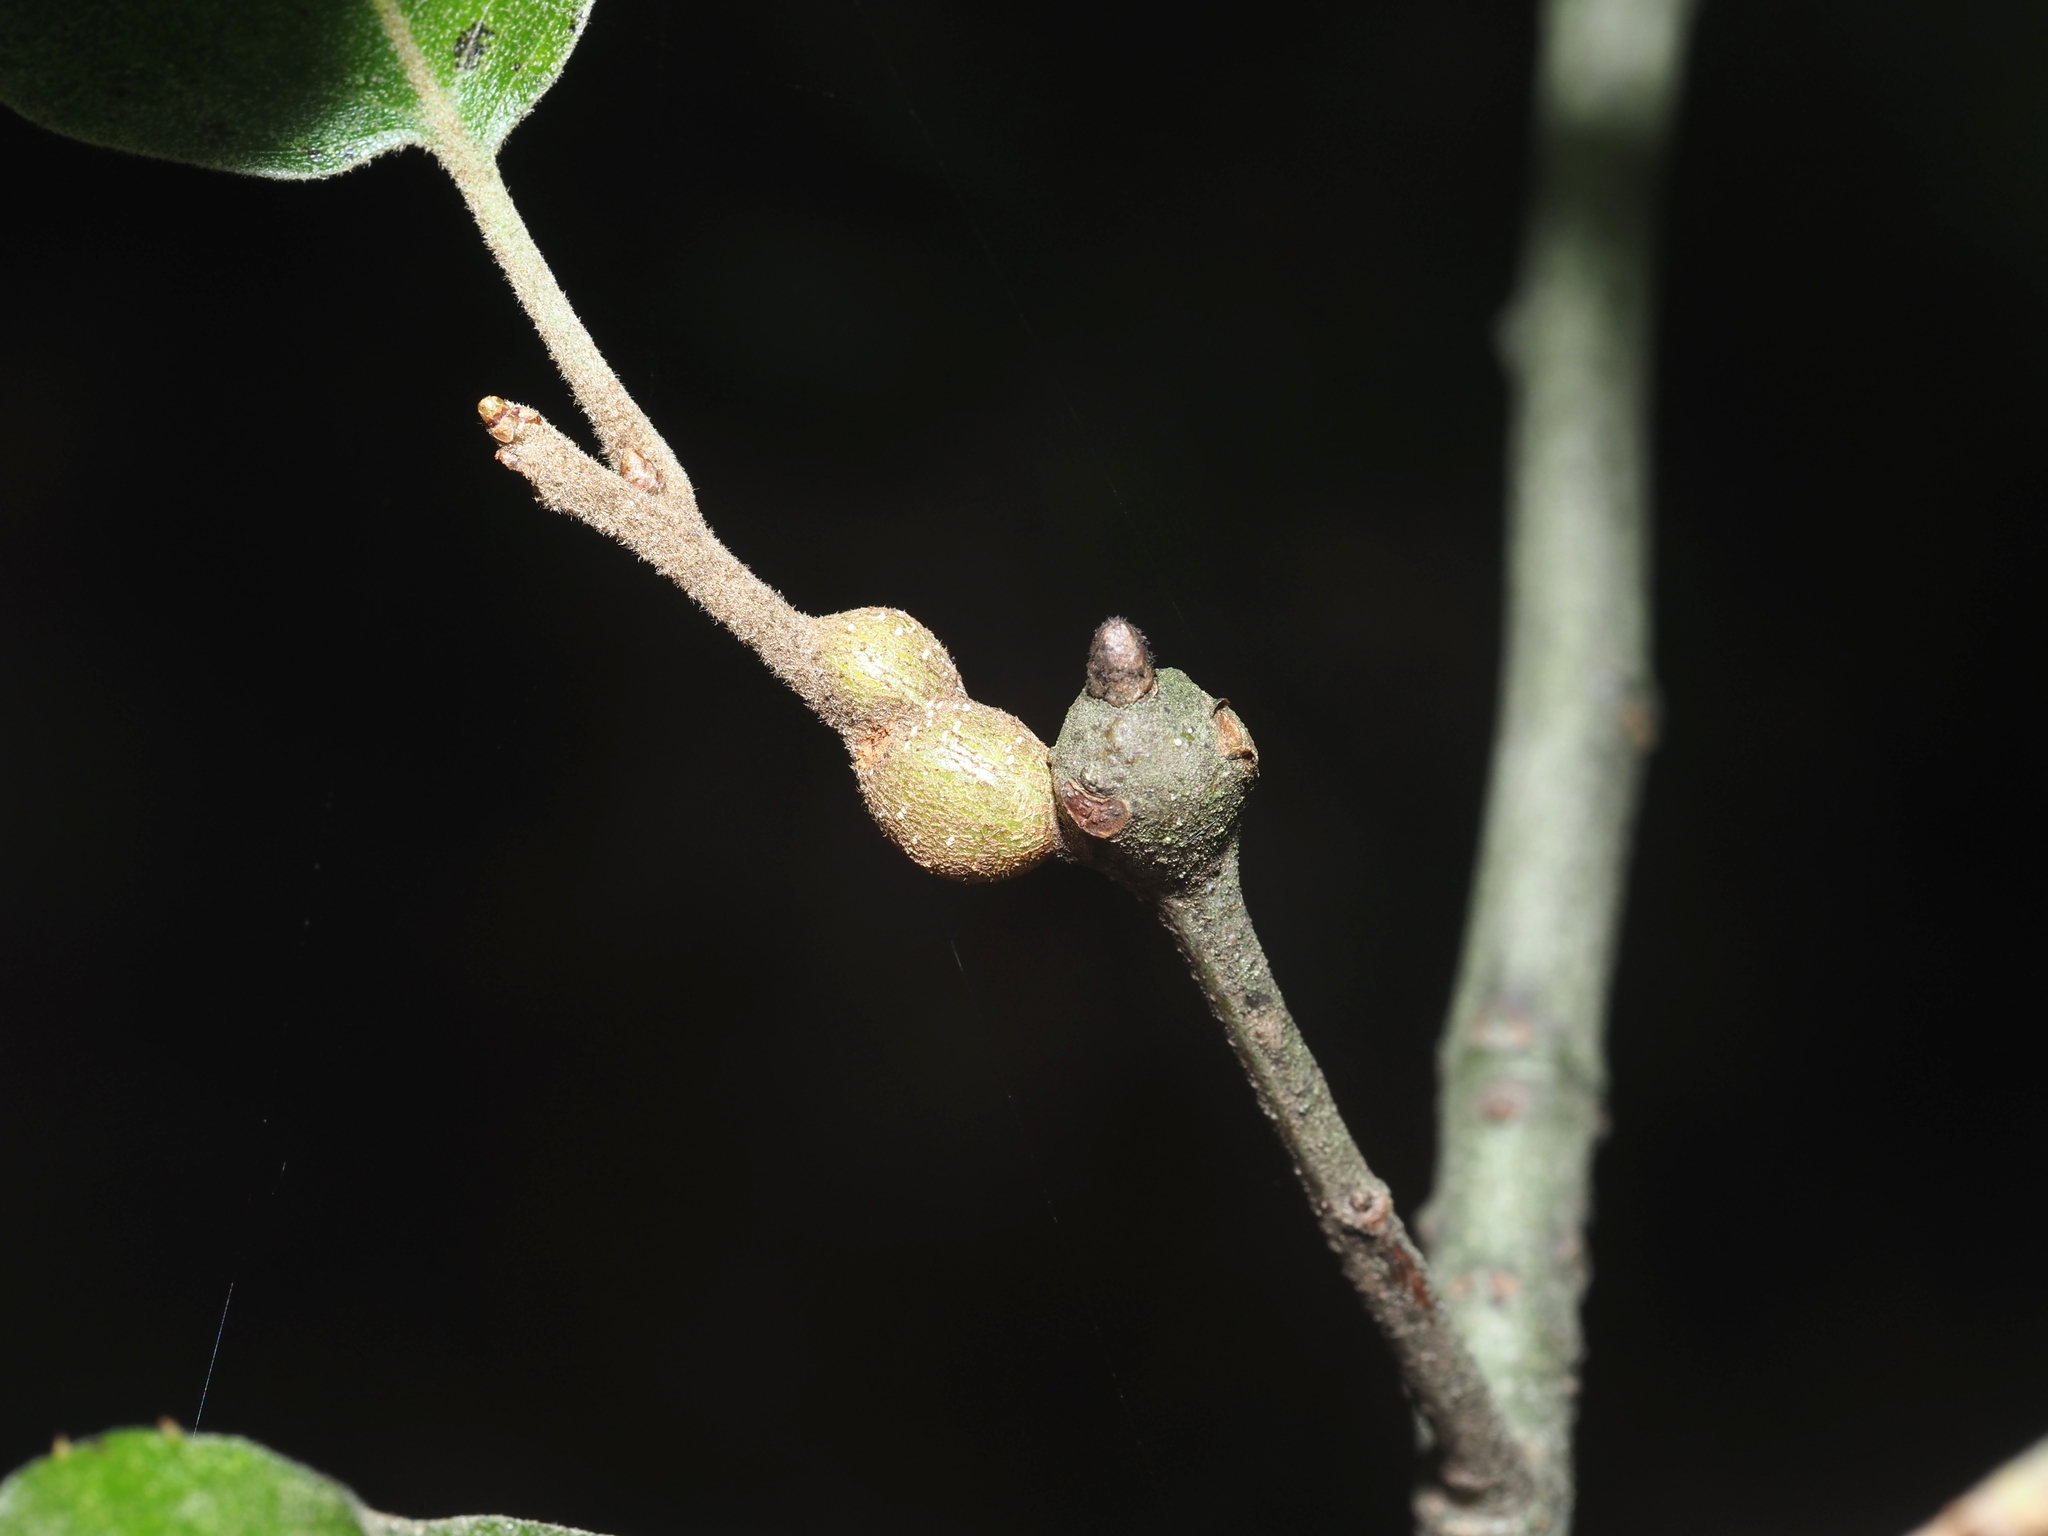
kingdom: Animalia
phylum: Arthropoda
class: Insecta
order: Hymenoptera
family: Cynipidae
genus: Zapatella
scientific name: Zapatella quercusmedullae
